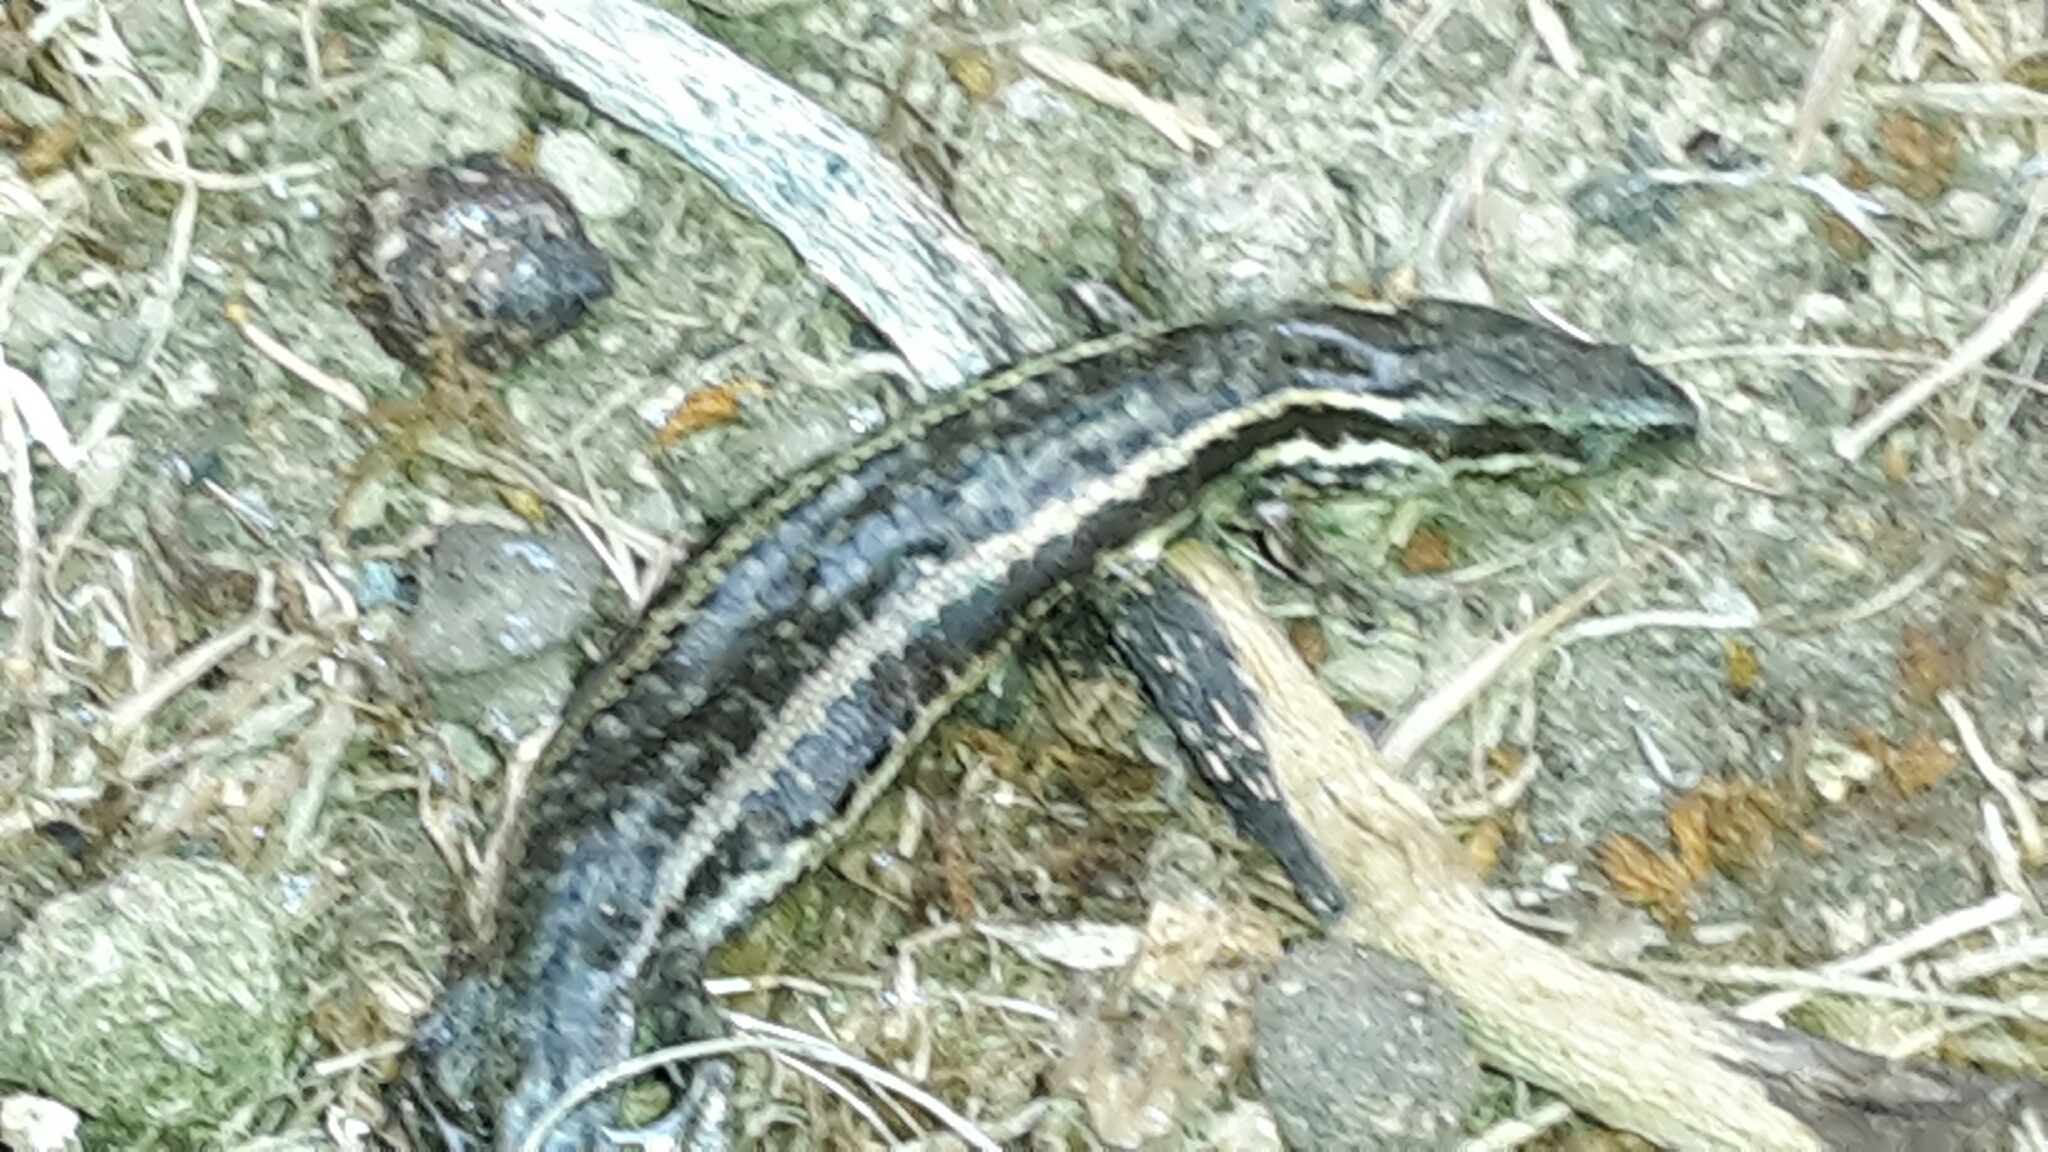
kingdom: Animalia
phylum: Chordata
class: Squamata
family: Scincidae
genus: Oligosoma
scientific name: Oligosoma maccanni
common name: Mccann’s skink
